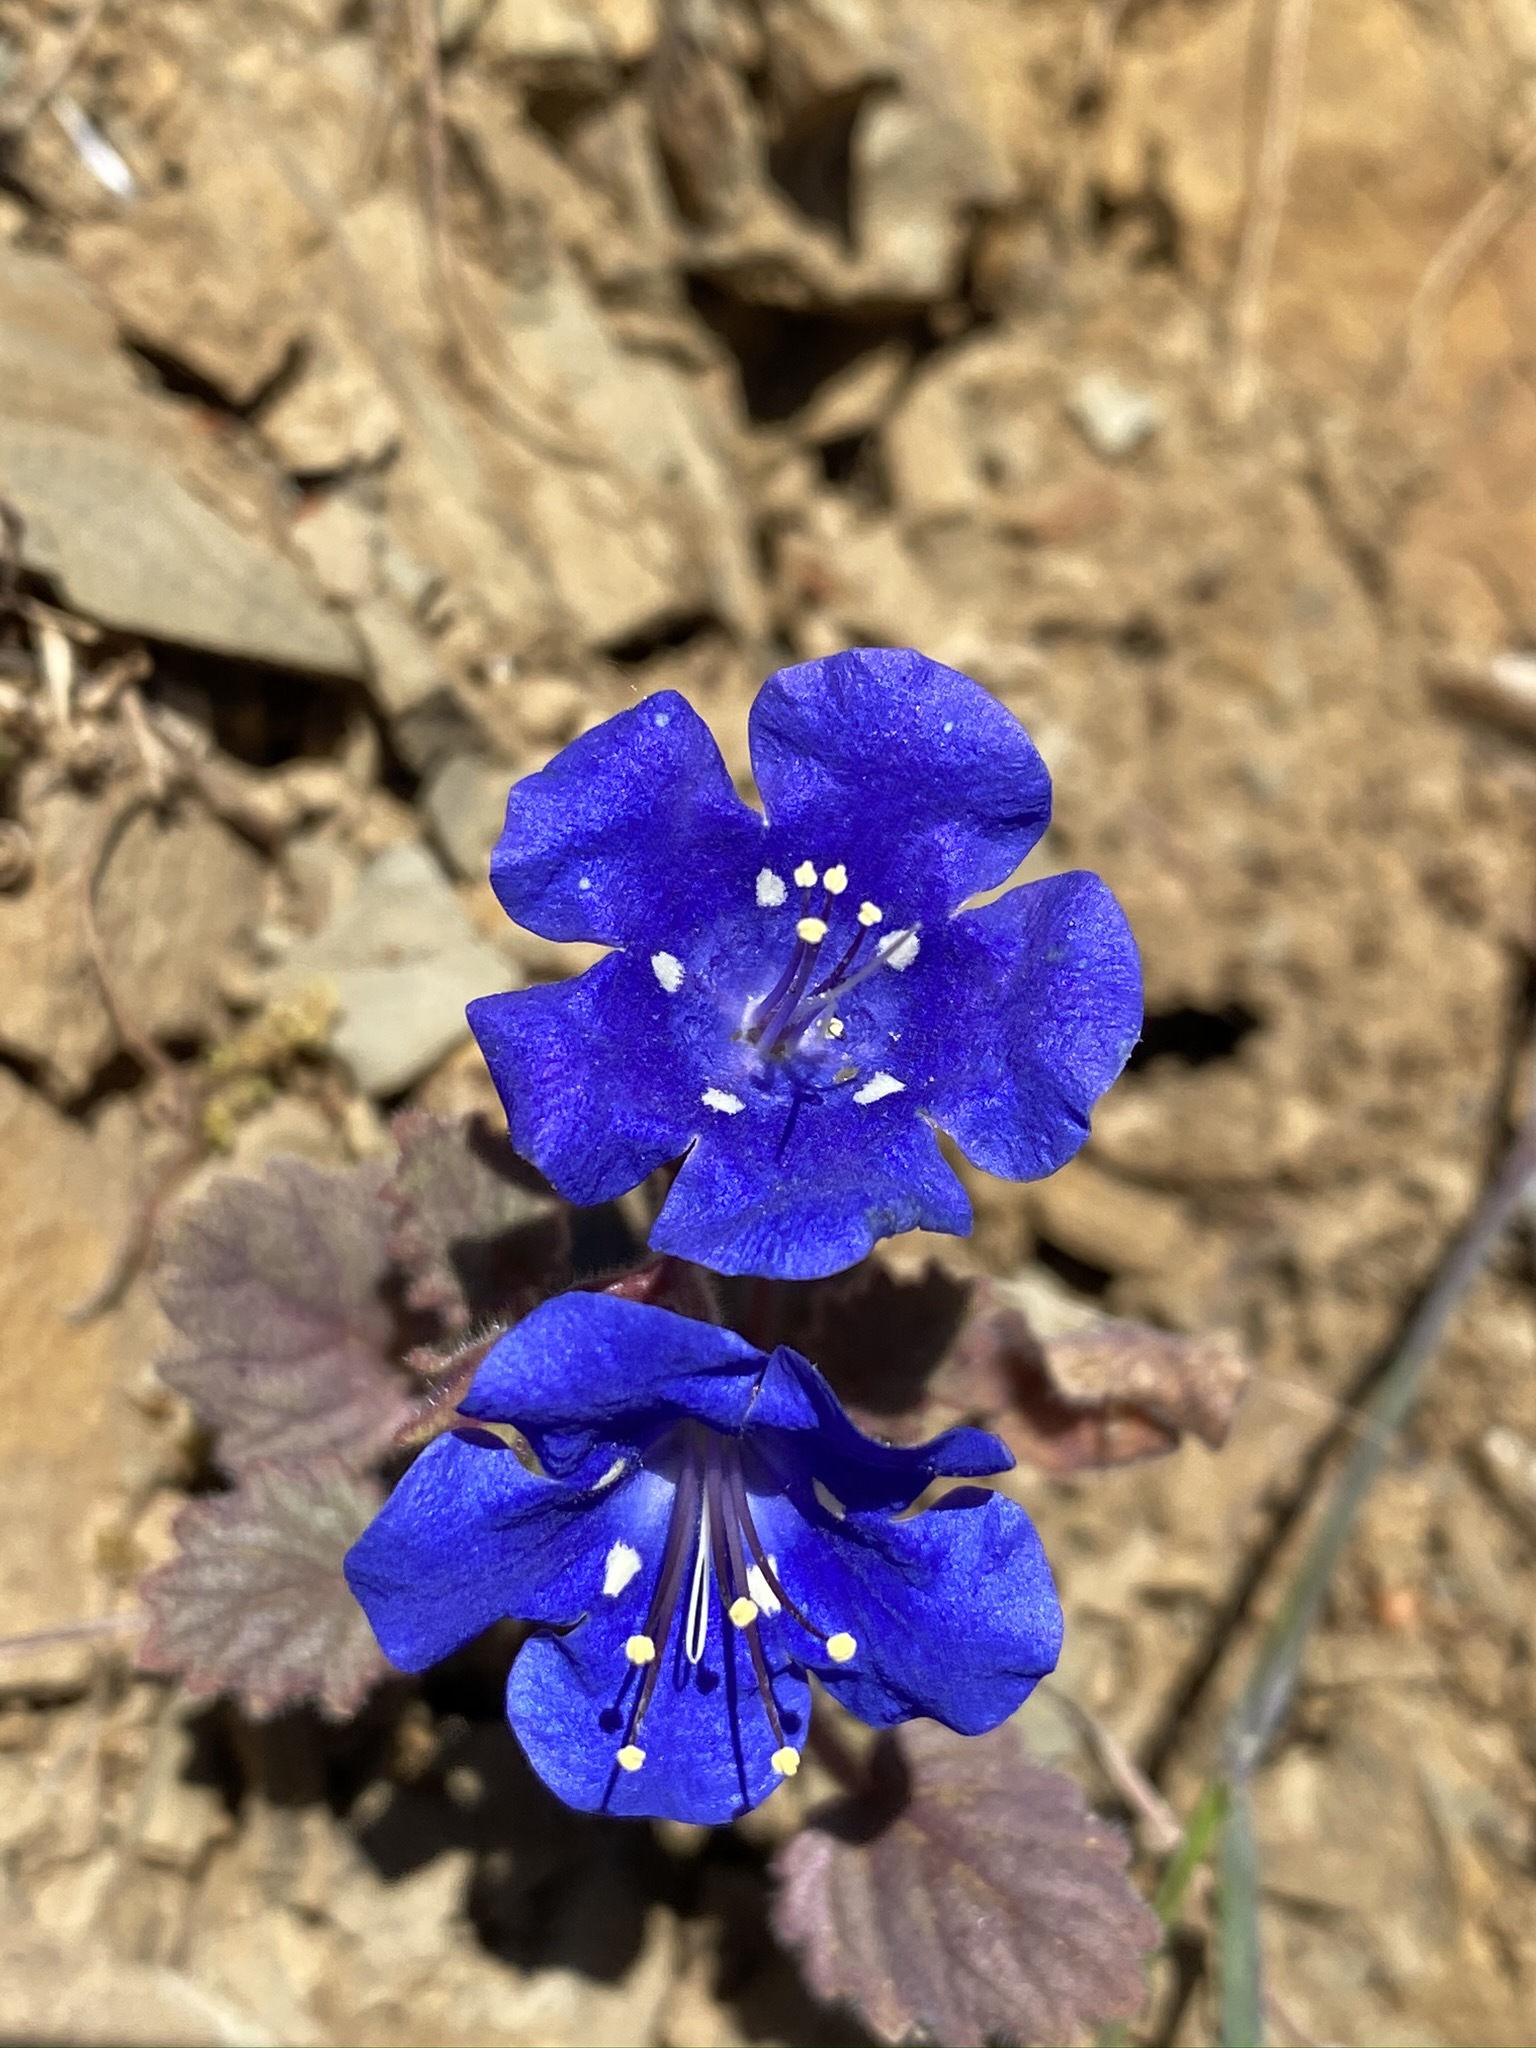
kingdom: Plantae
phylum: Tracheophyta
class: Magnoliopsida
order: Boraginales
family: Hydrophyllaceae
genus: Phacelia
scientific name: Phacelia campanularia
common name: California bluebell
